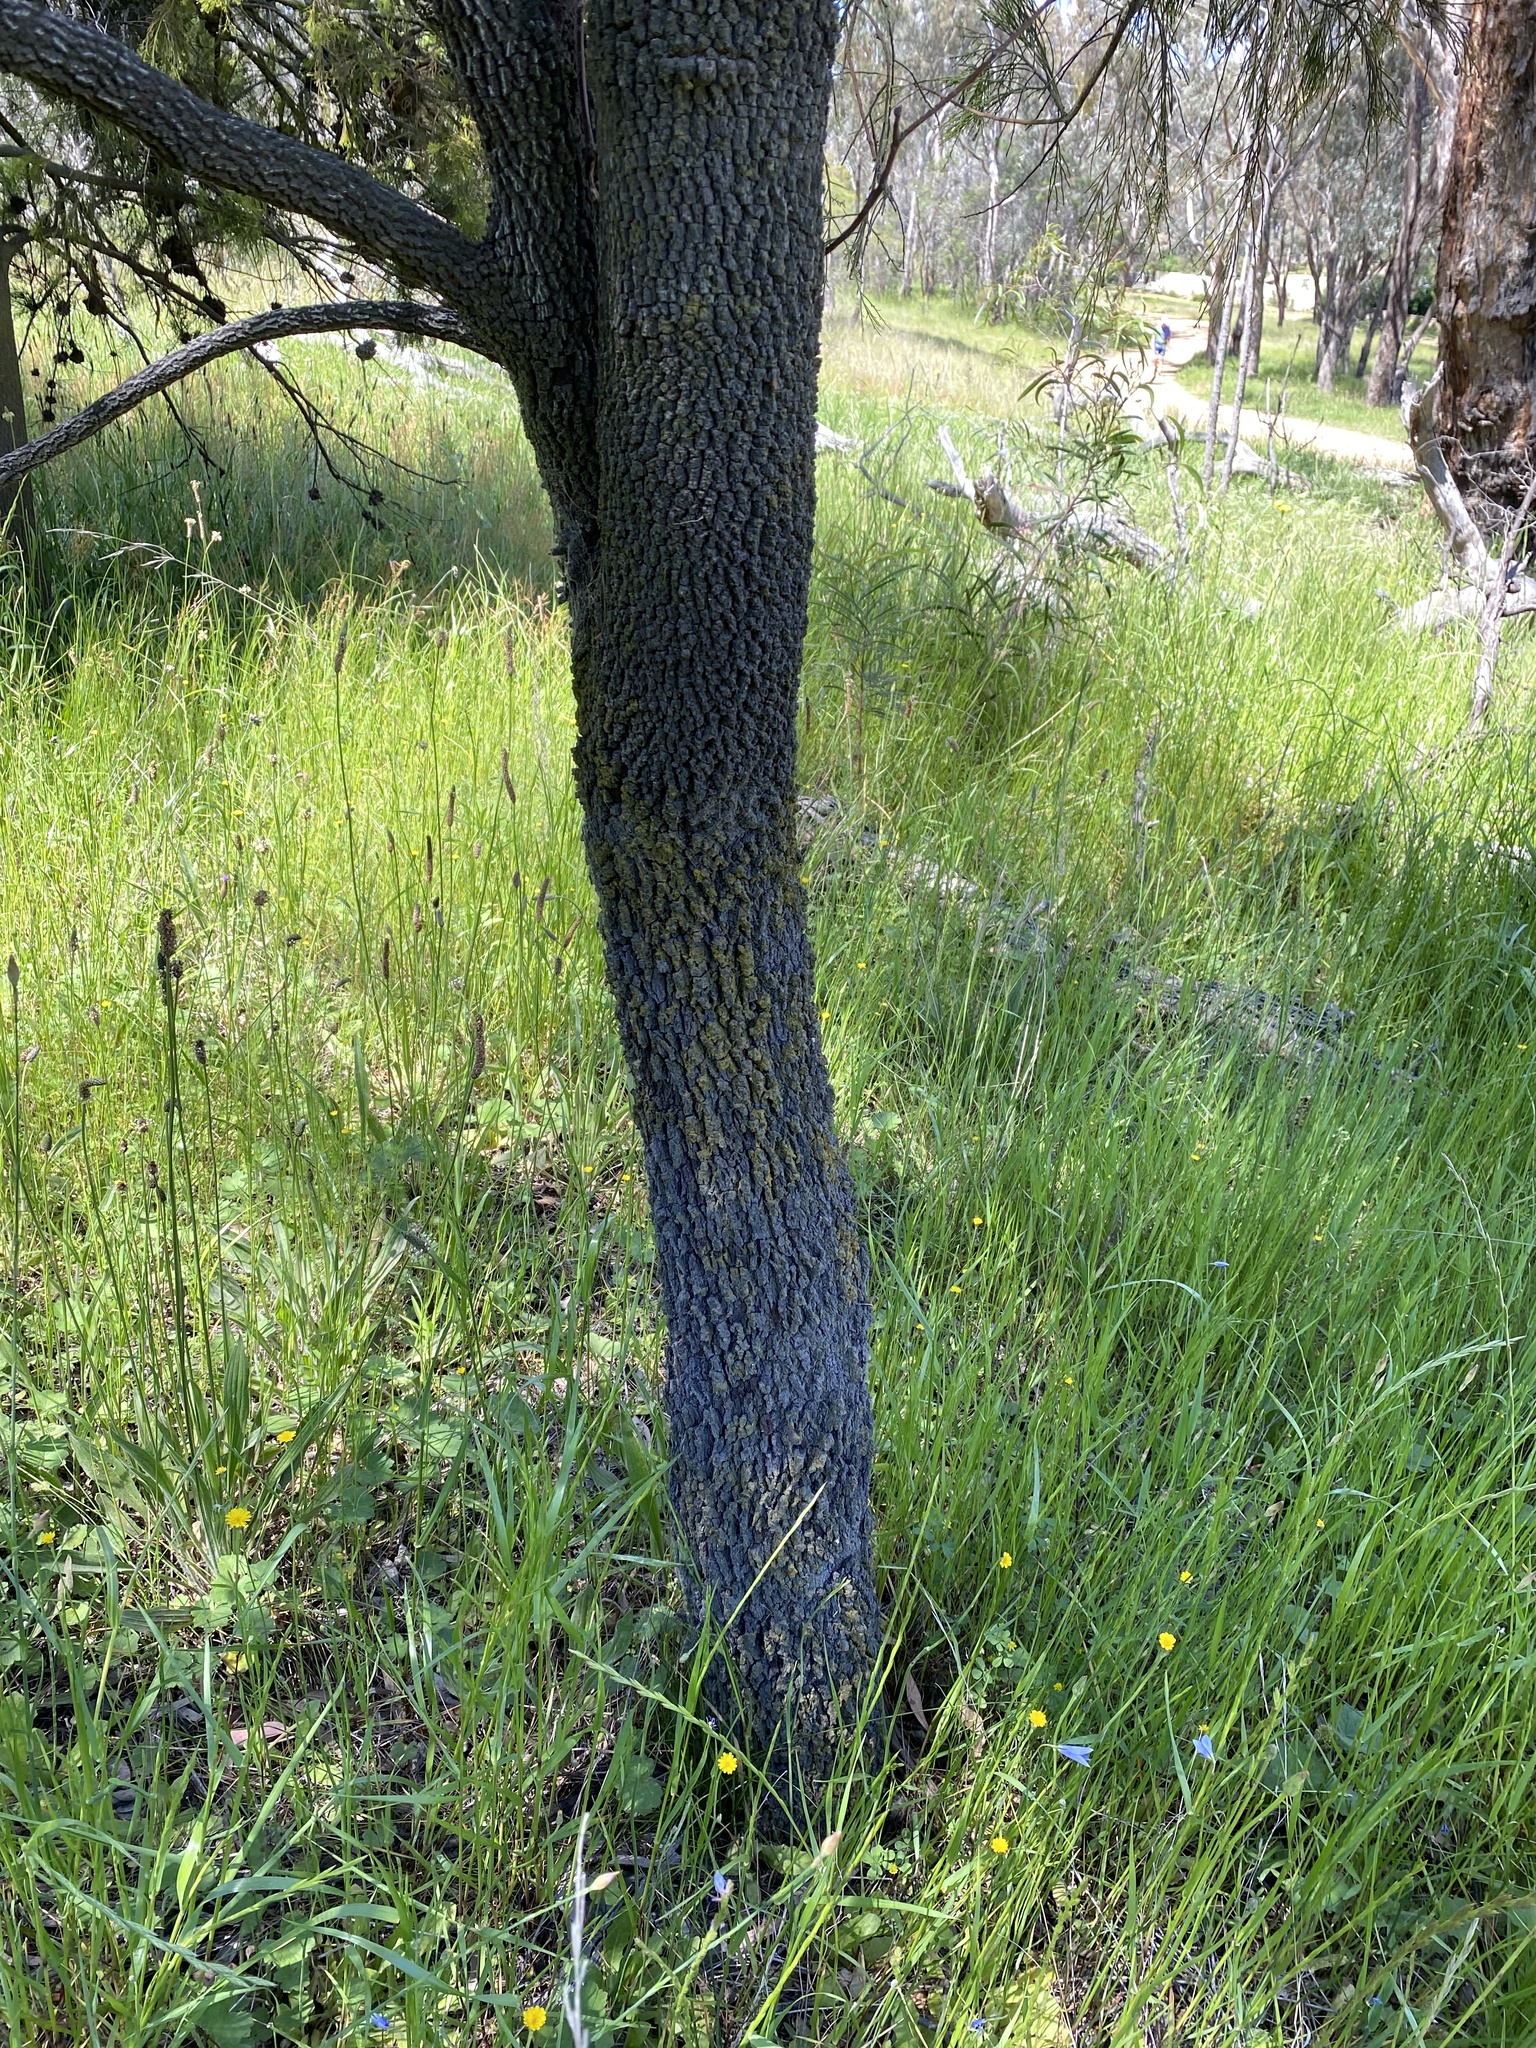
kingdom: Plantae
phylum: Tracheophyta
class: Magnoliopsida
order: Santalales
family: Santalaceae
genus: Exocarpos
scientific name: Exocarpos cupressiformis
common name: Cherry ballart
